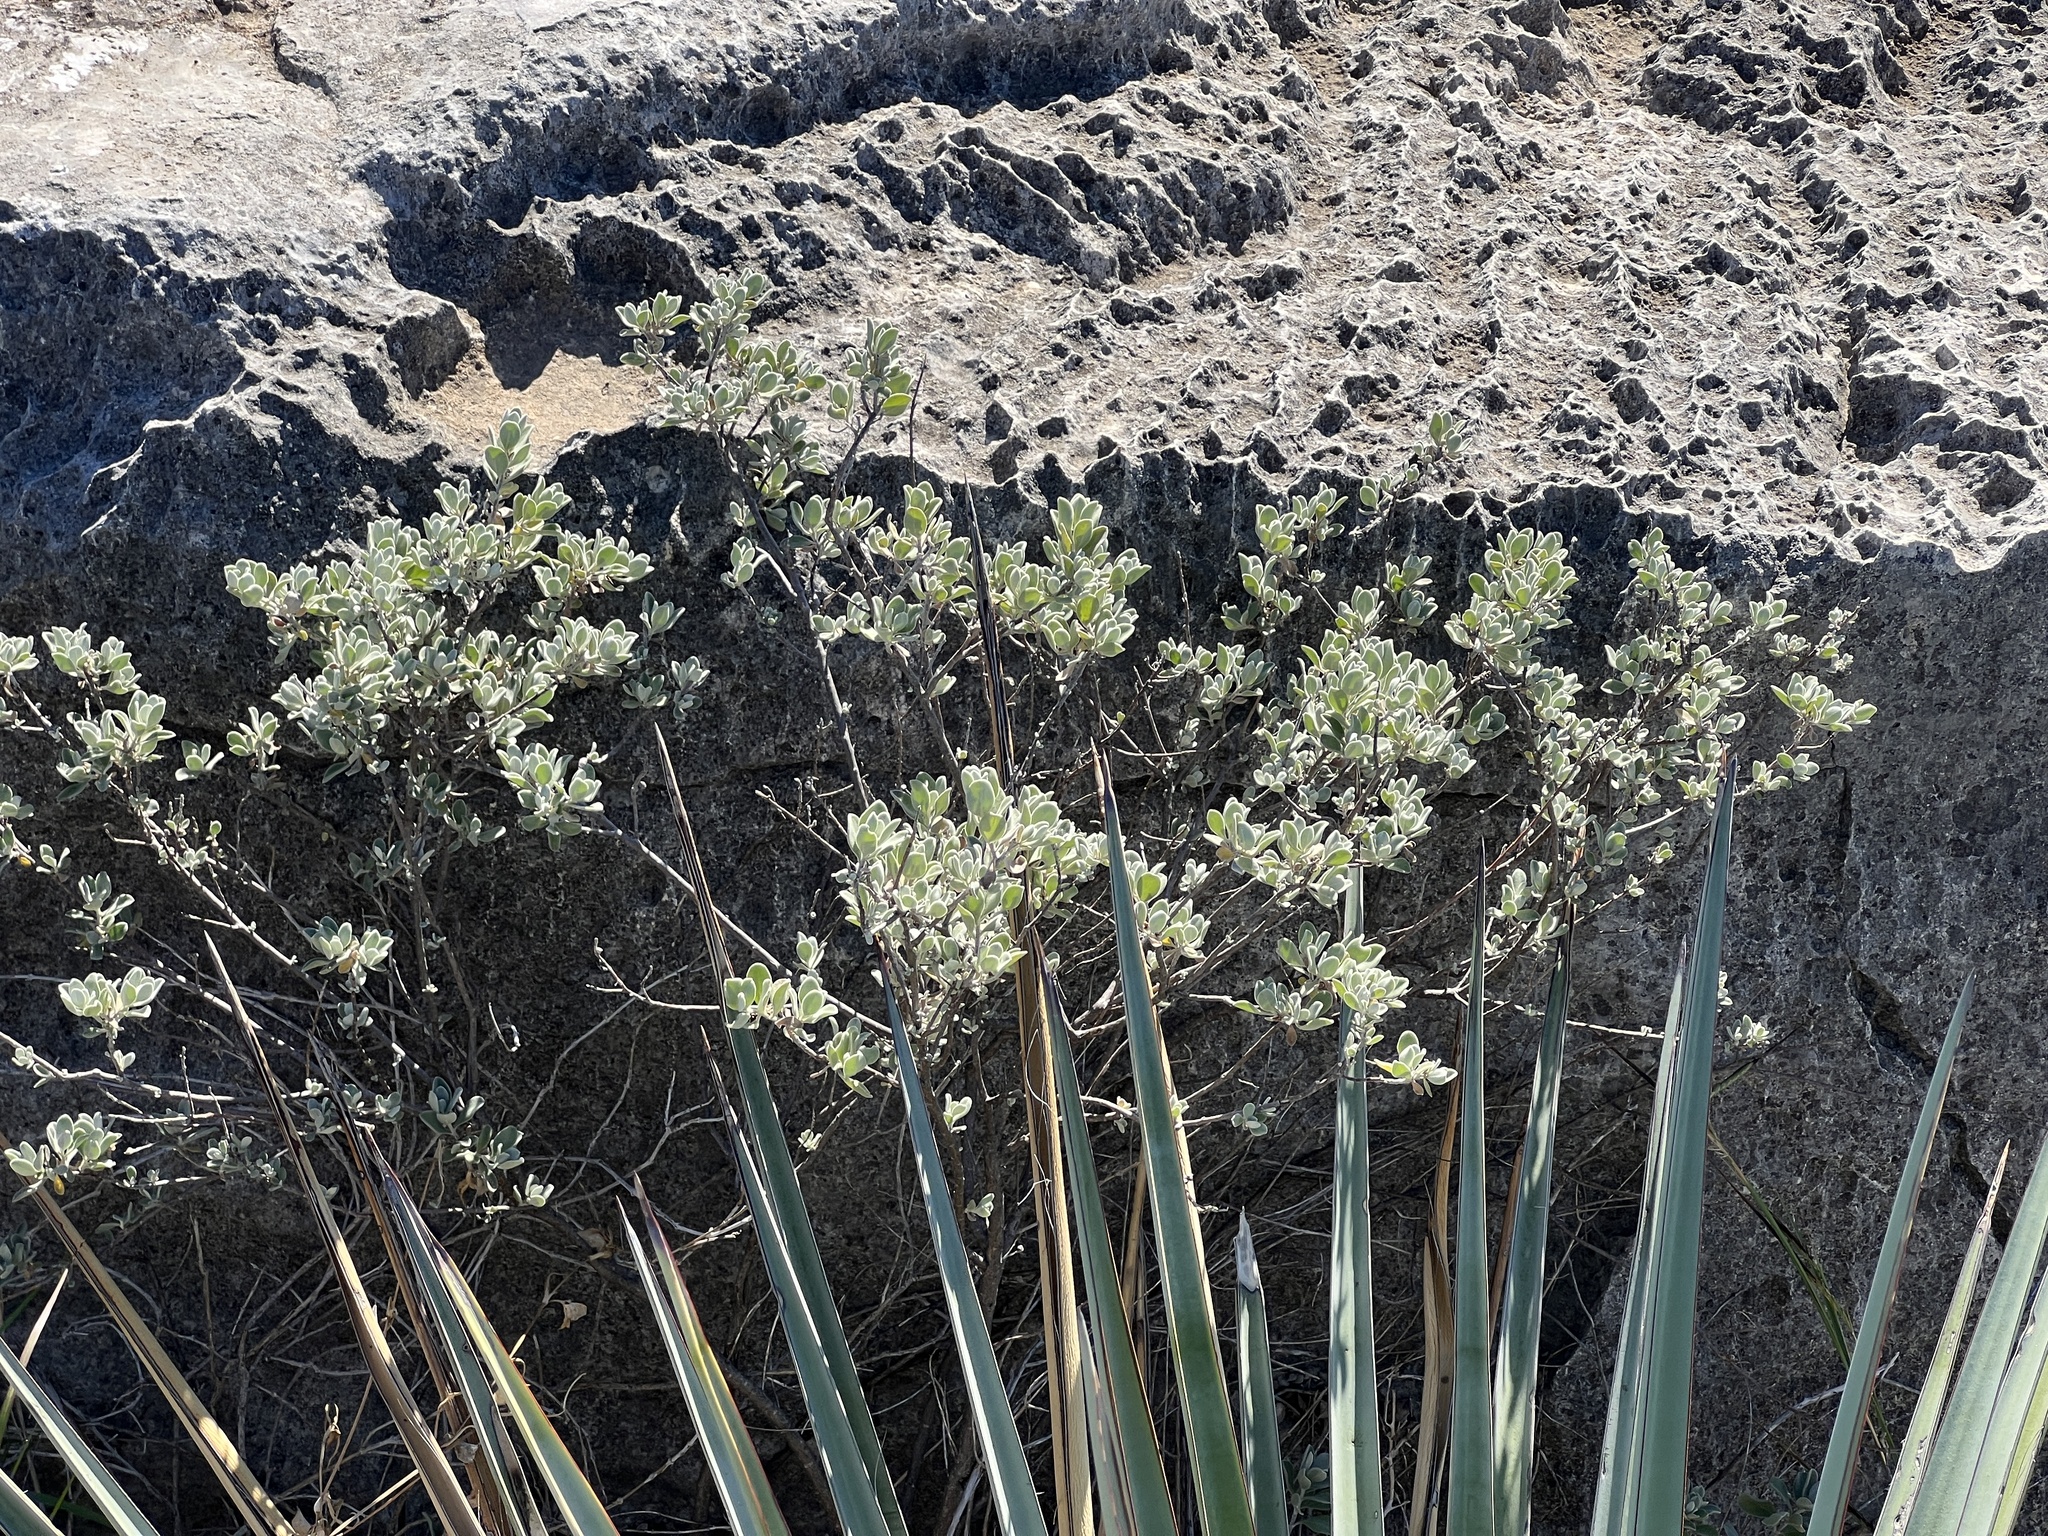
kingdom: Plantae
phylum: Tracheophyta
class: Magnoliopsida
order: Lamiales
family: Scrophulariaceae
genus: Leucophyllum
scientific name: Leucophyllum frutescens
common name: Texas silverleaf
